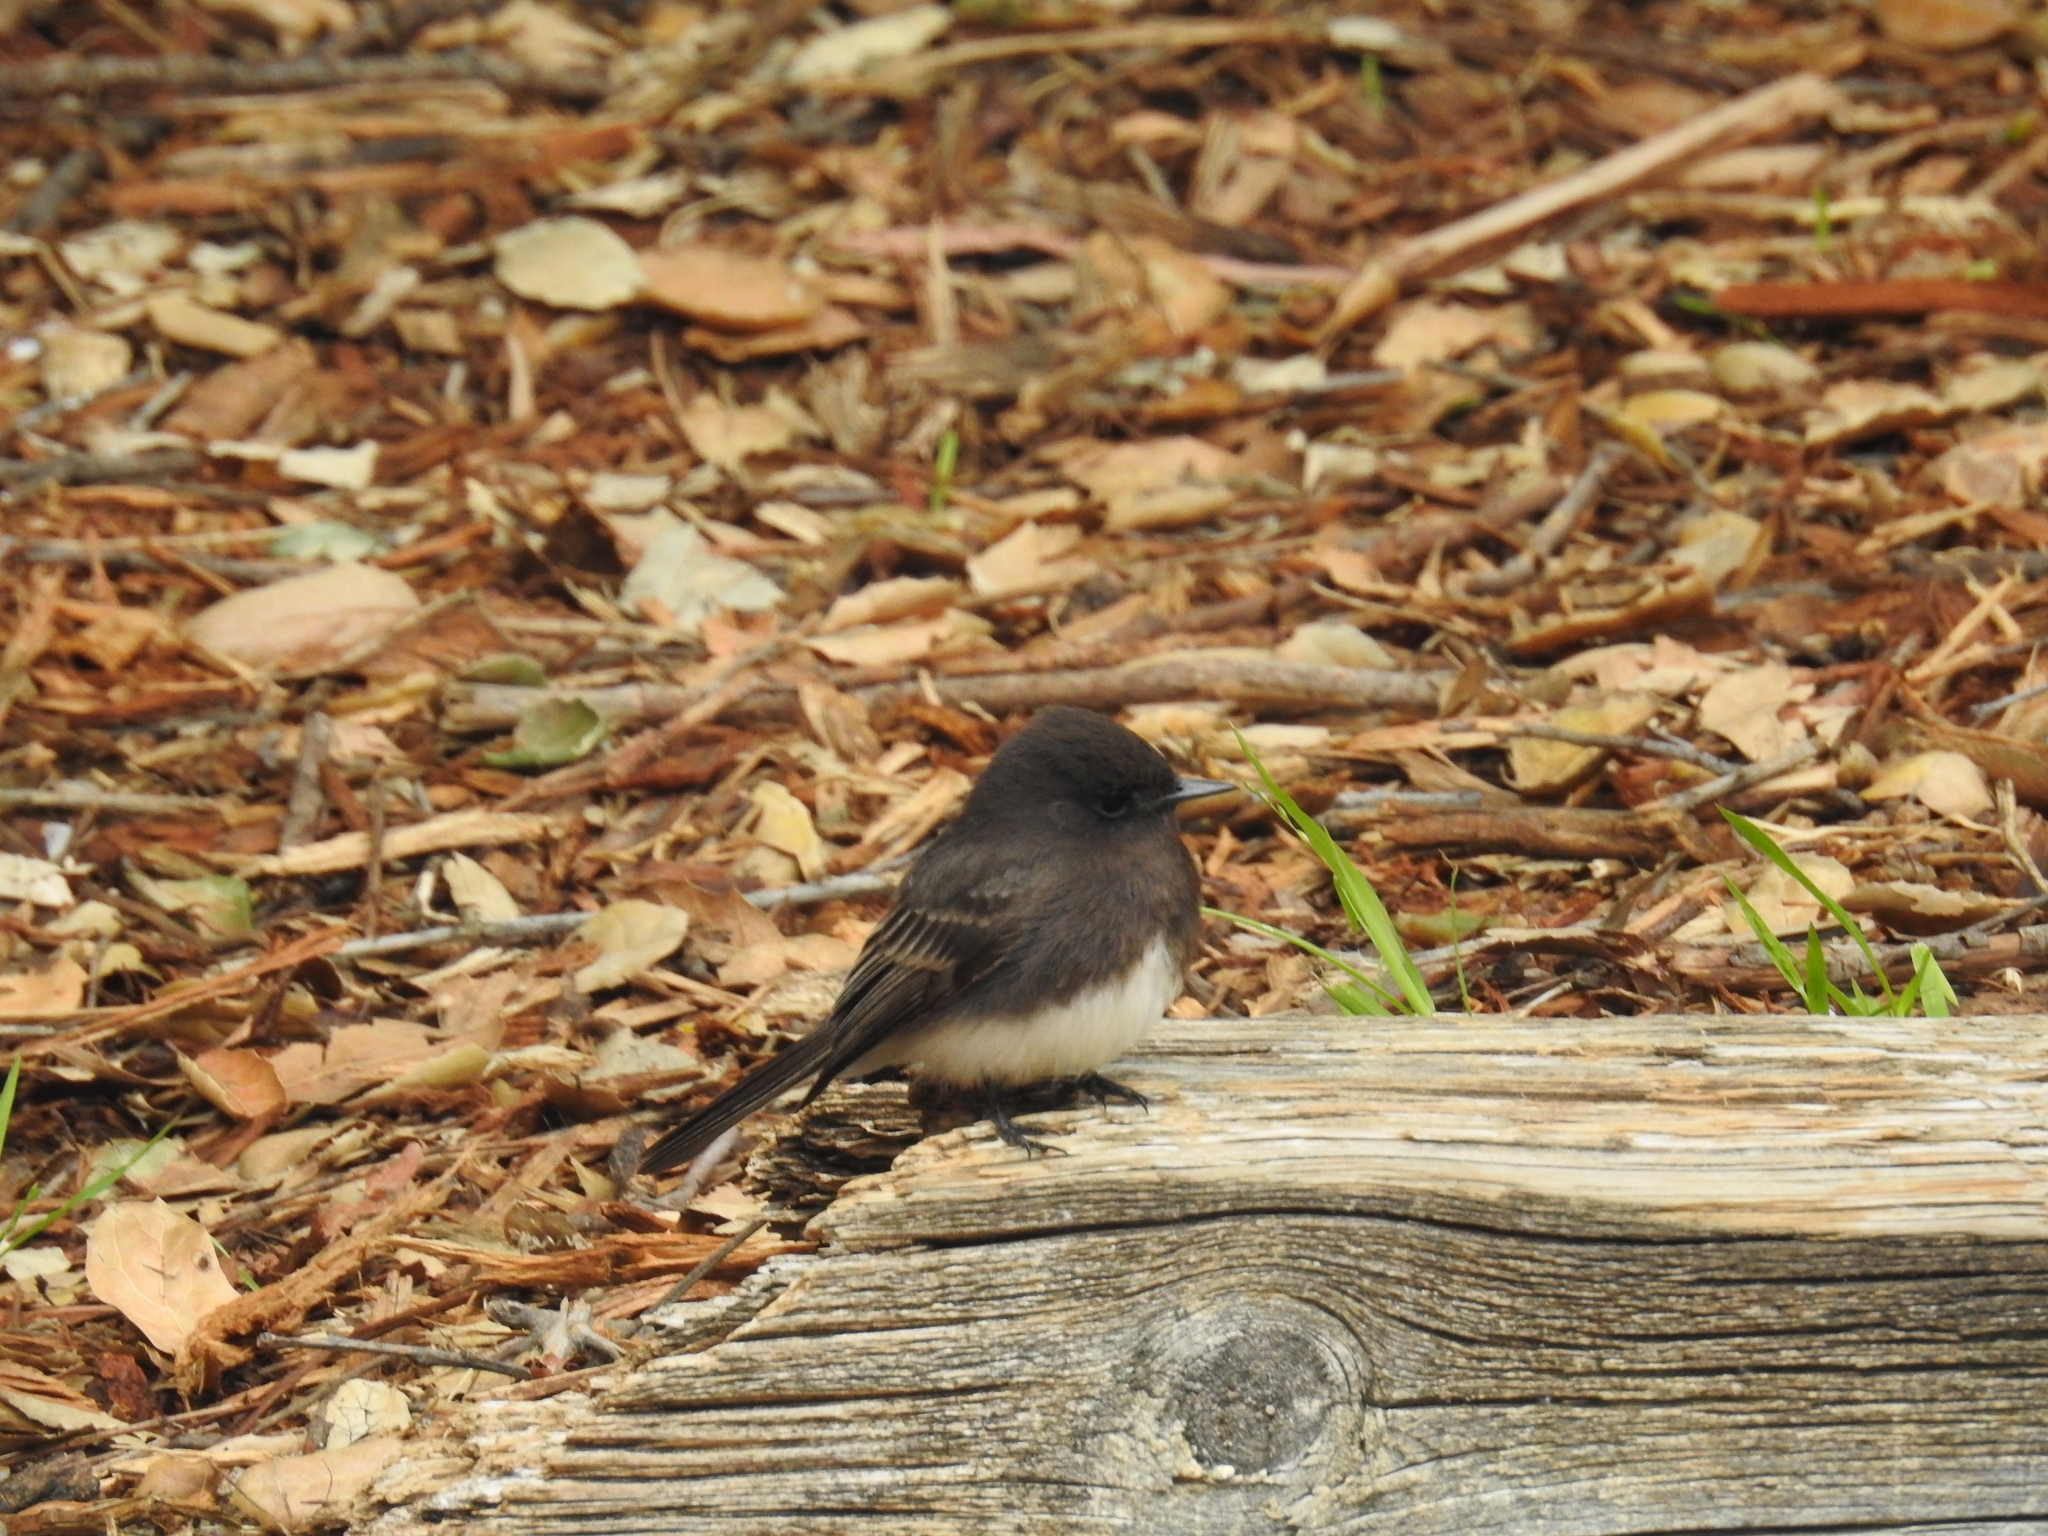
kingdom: Animalia
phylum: Chordata
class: Aves
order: Passeriformes
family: Tyrannidae
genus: Sayornis
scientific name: Sayornis nigricans
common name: Black phoebe
